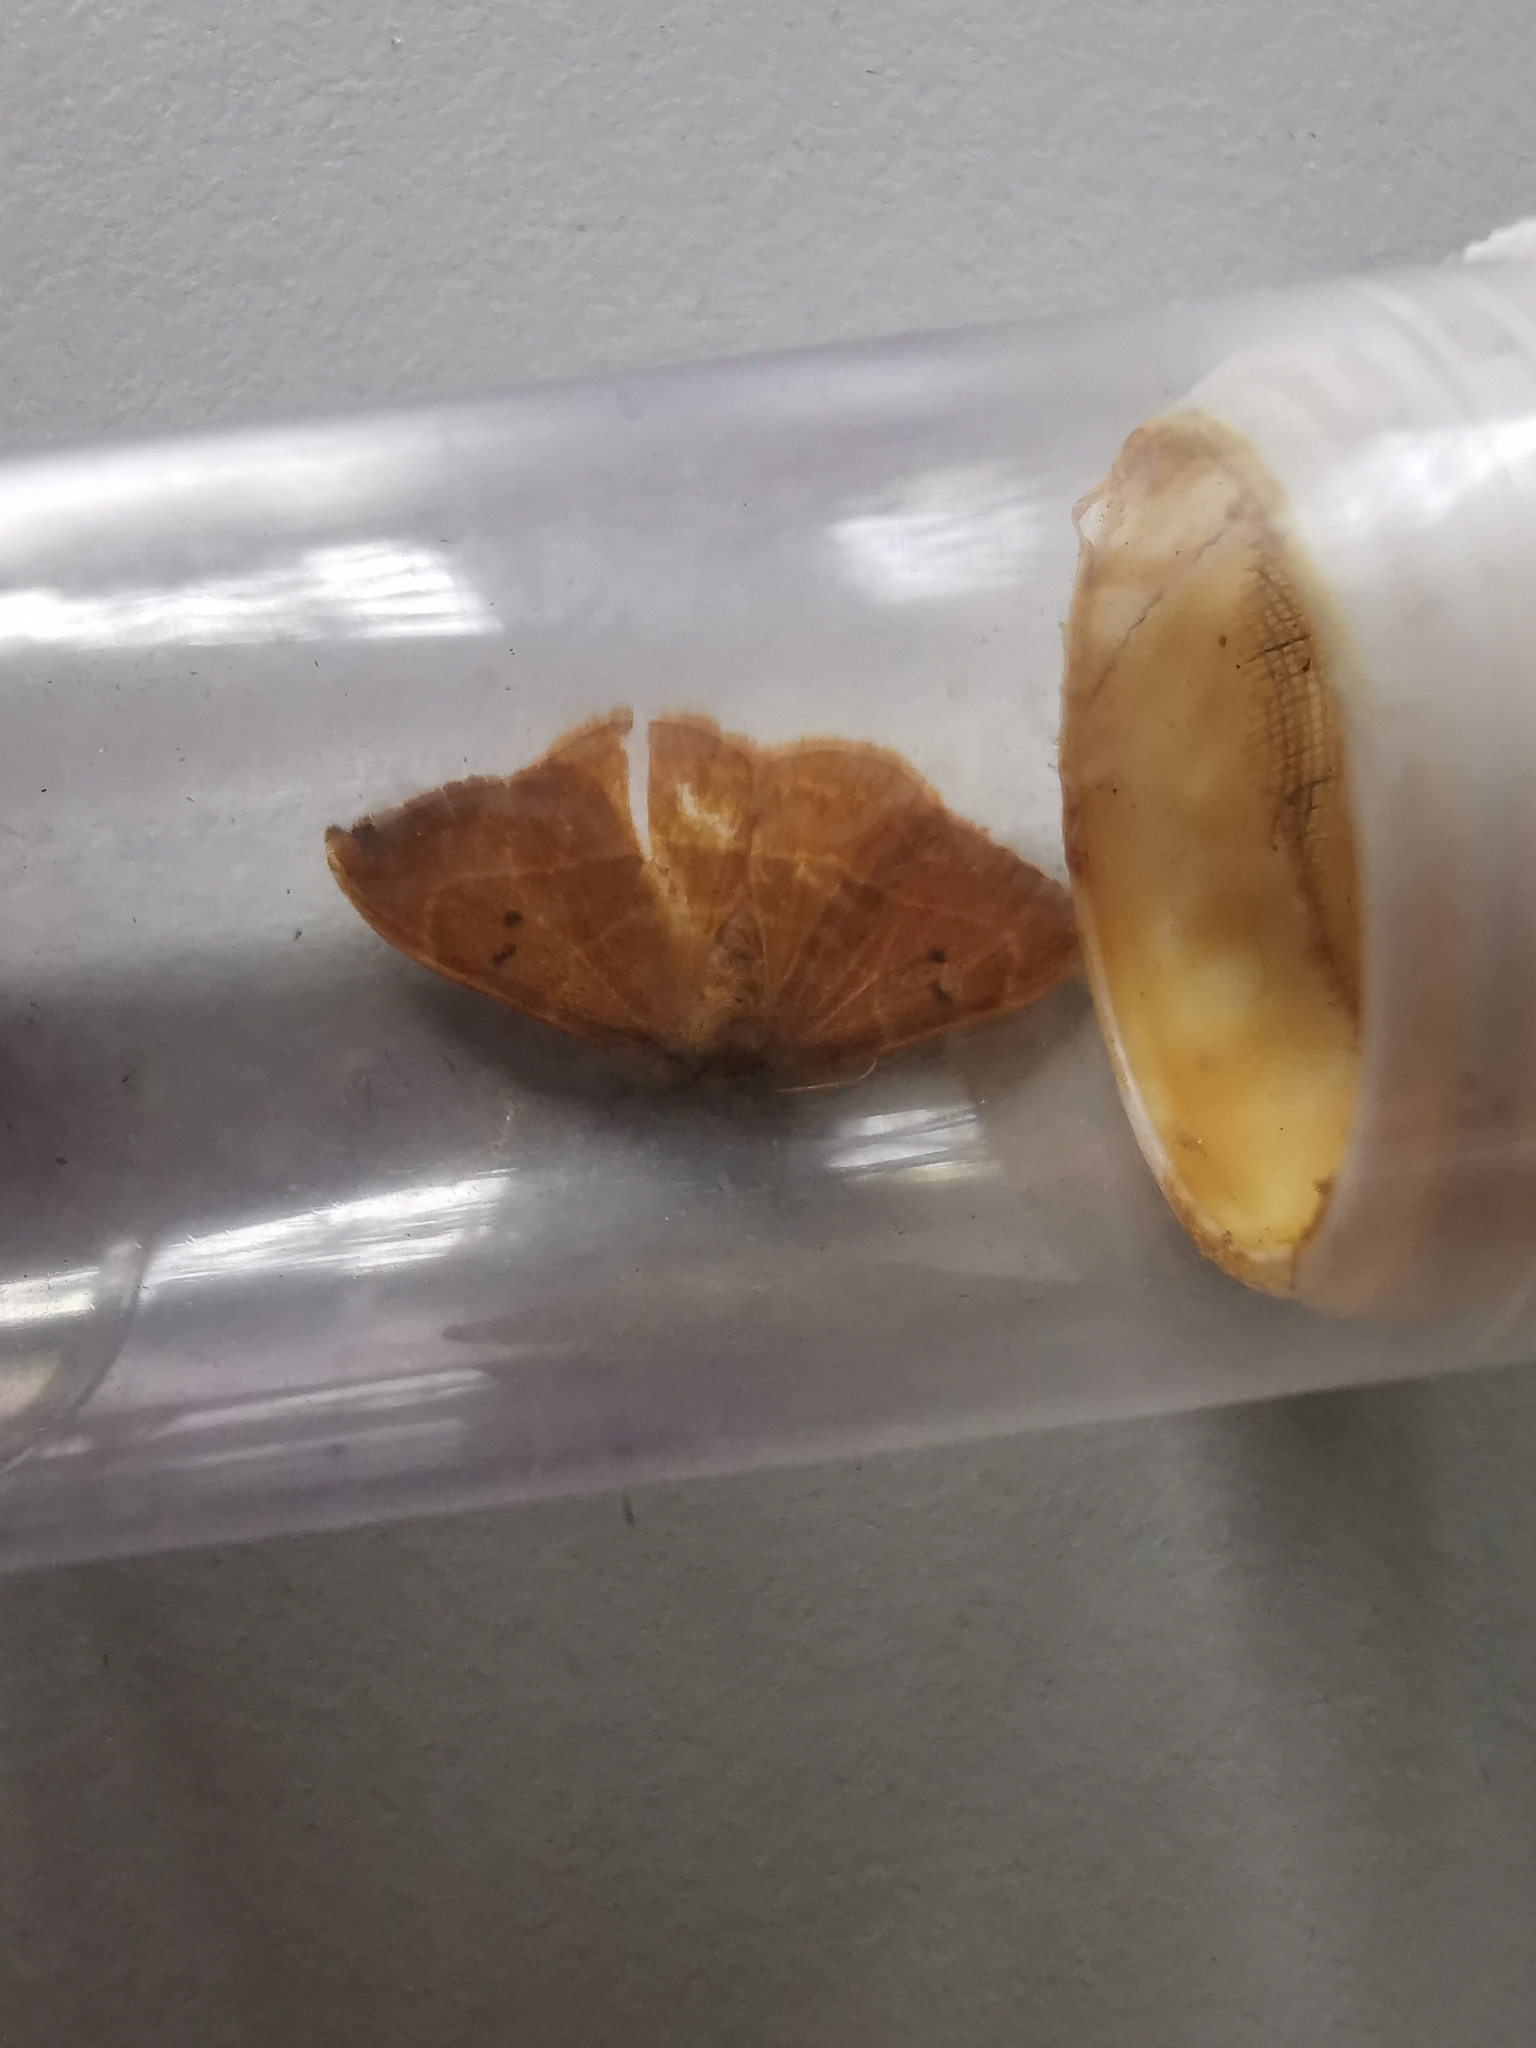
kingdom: Animalia
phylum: Arthropoda
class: Insecta
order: Lepidoptera
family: Drepanidae
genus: Watsonalla
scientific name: Watsonalla binaria
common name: Oak hook-tip
